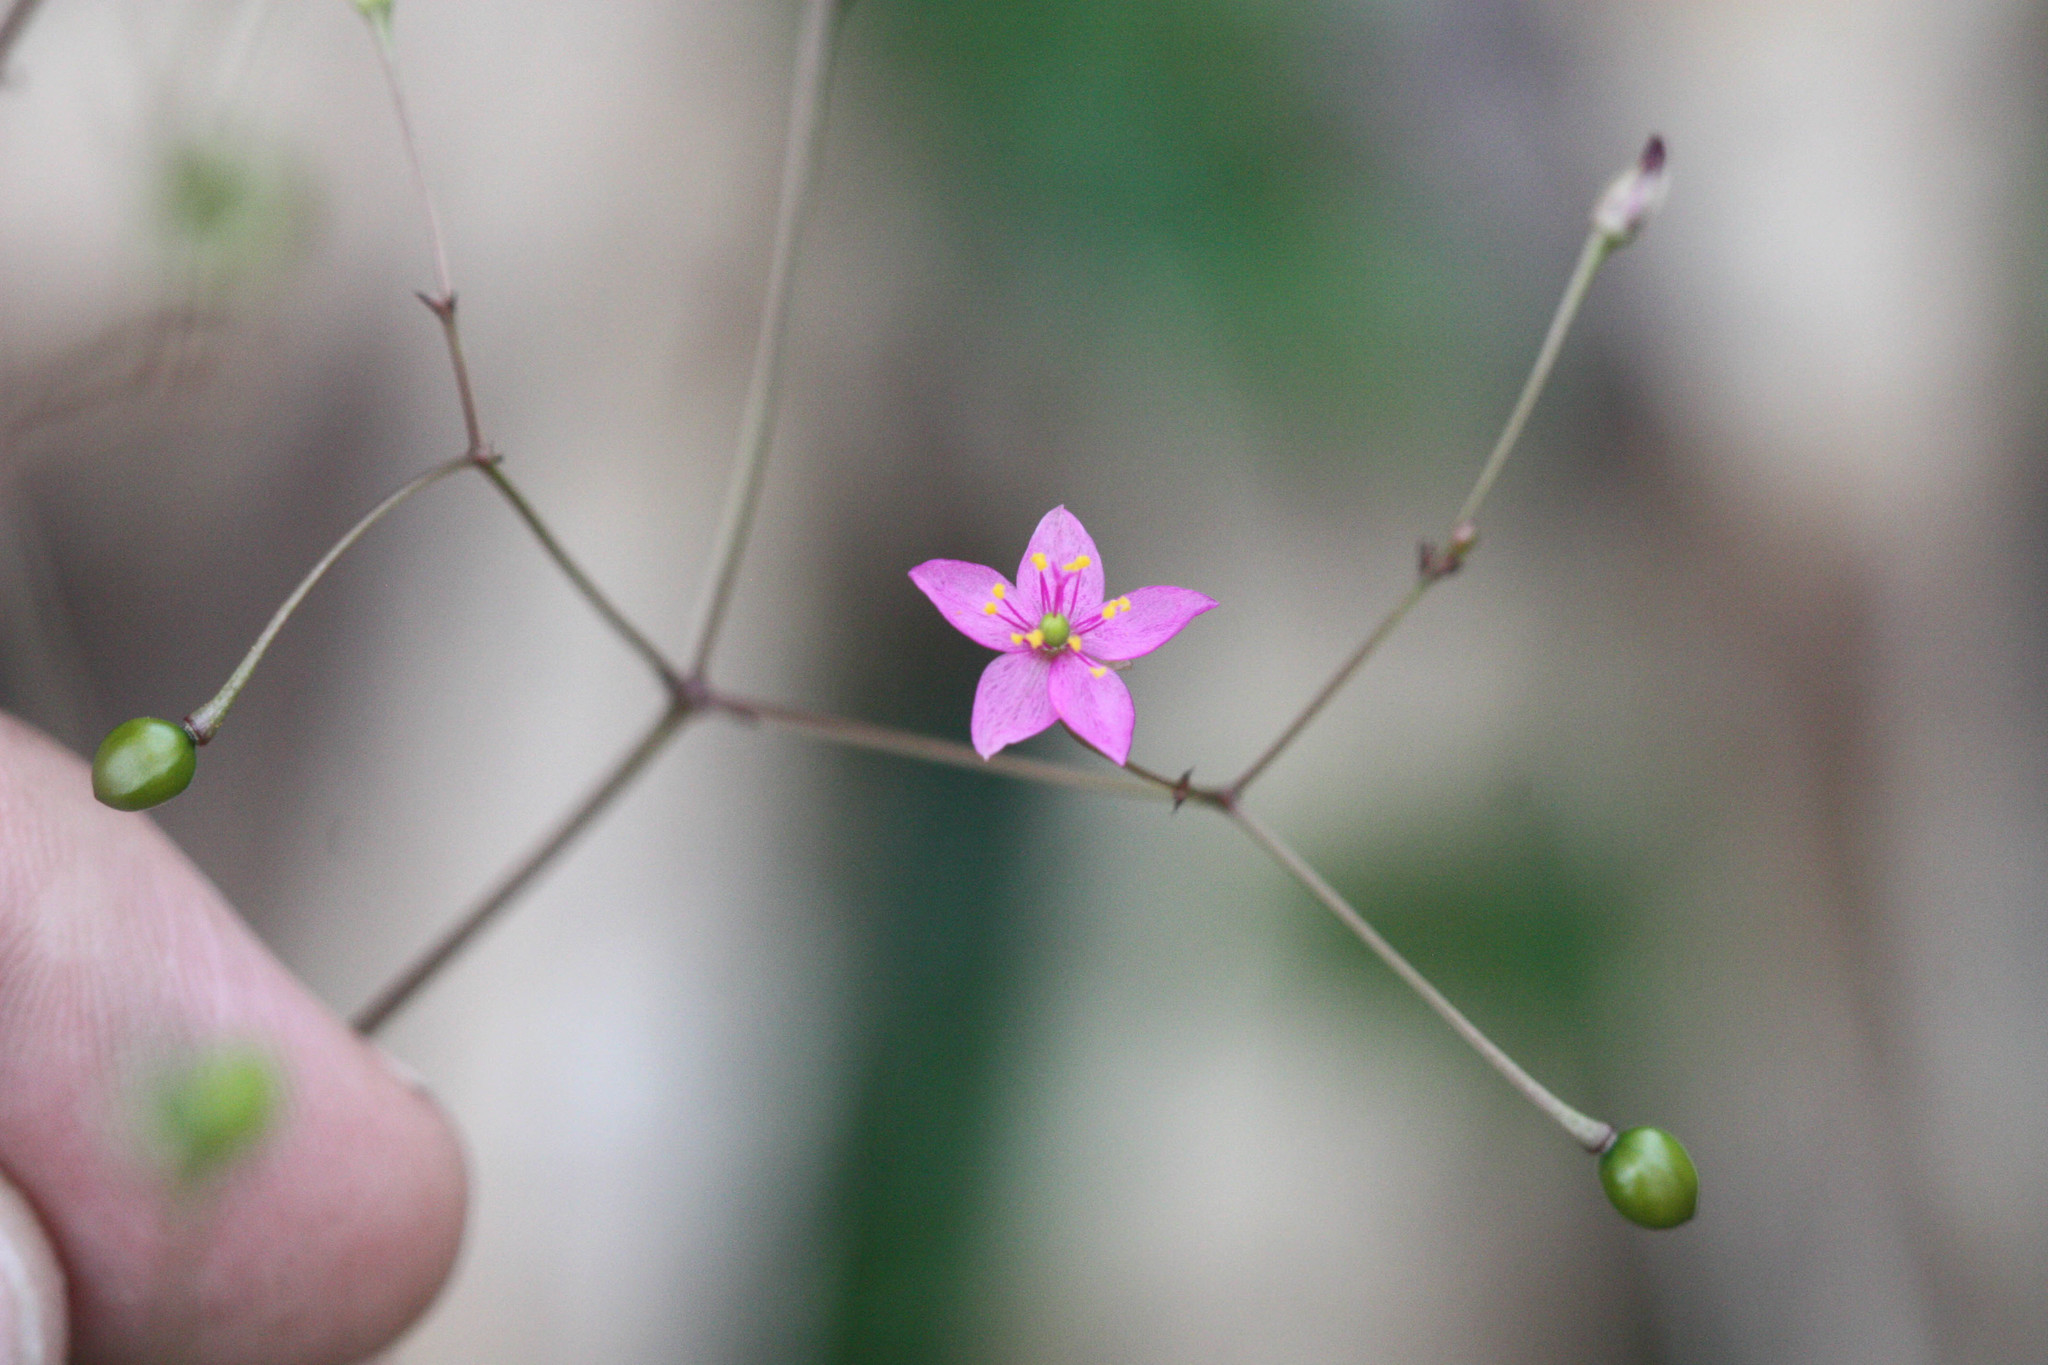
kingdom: Plantae
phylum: Tracheophyta
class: Magnoliopsida
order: Caryophyllales
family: Talinaceae
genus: Talinum
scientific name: Talinum paniculatum
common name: Jewels of opar
